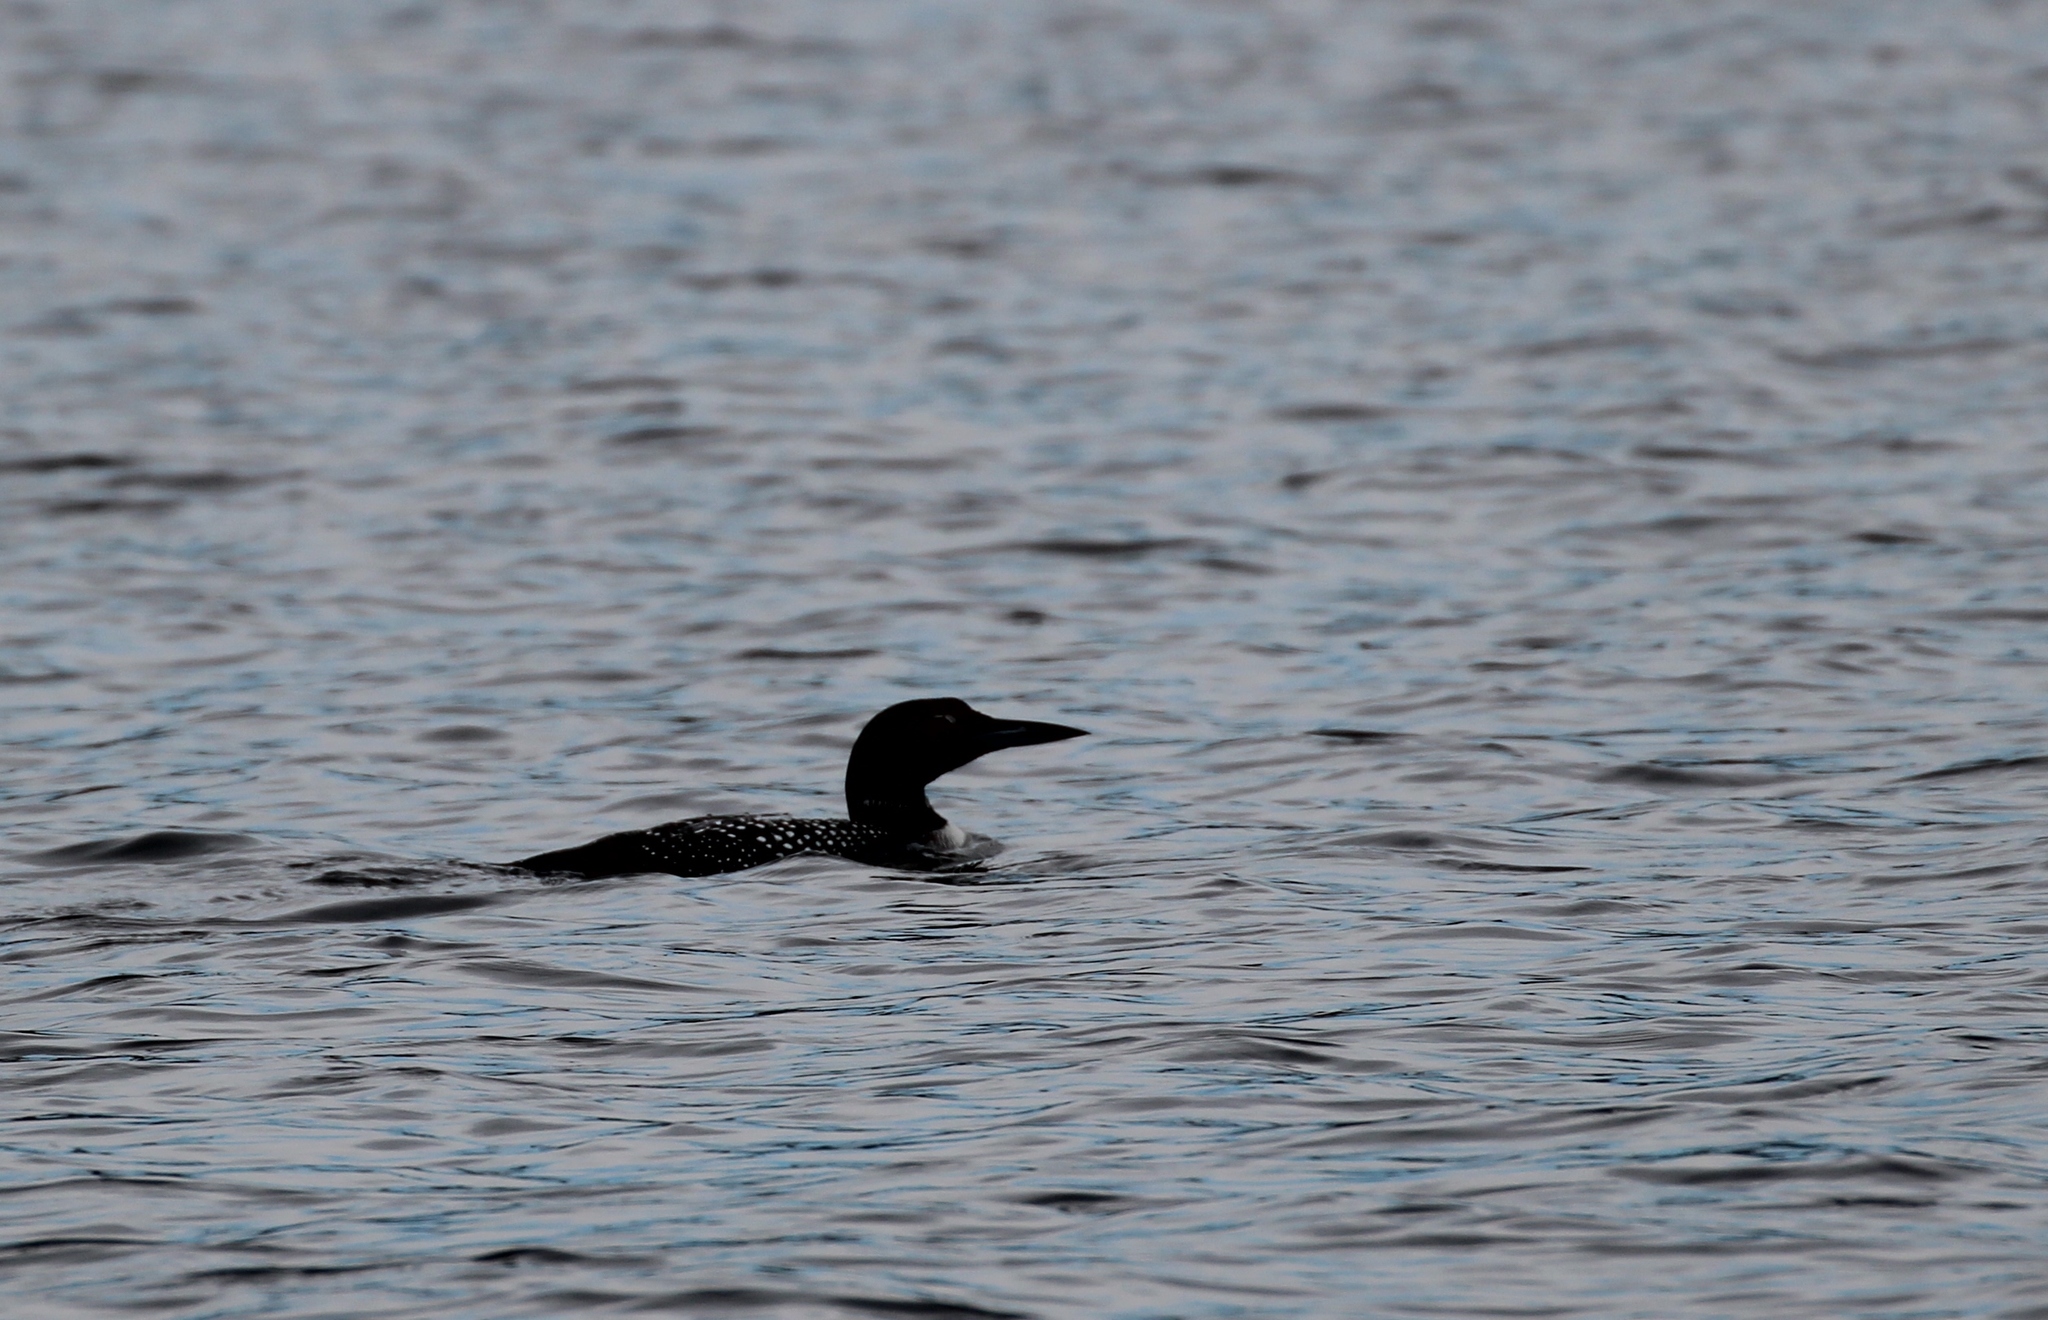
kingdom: Animalia
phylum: Chordata
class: Aves
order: Gaviiformes
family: Gaviidae
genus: Gavia
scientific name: Gavia immer
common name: Common loon
